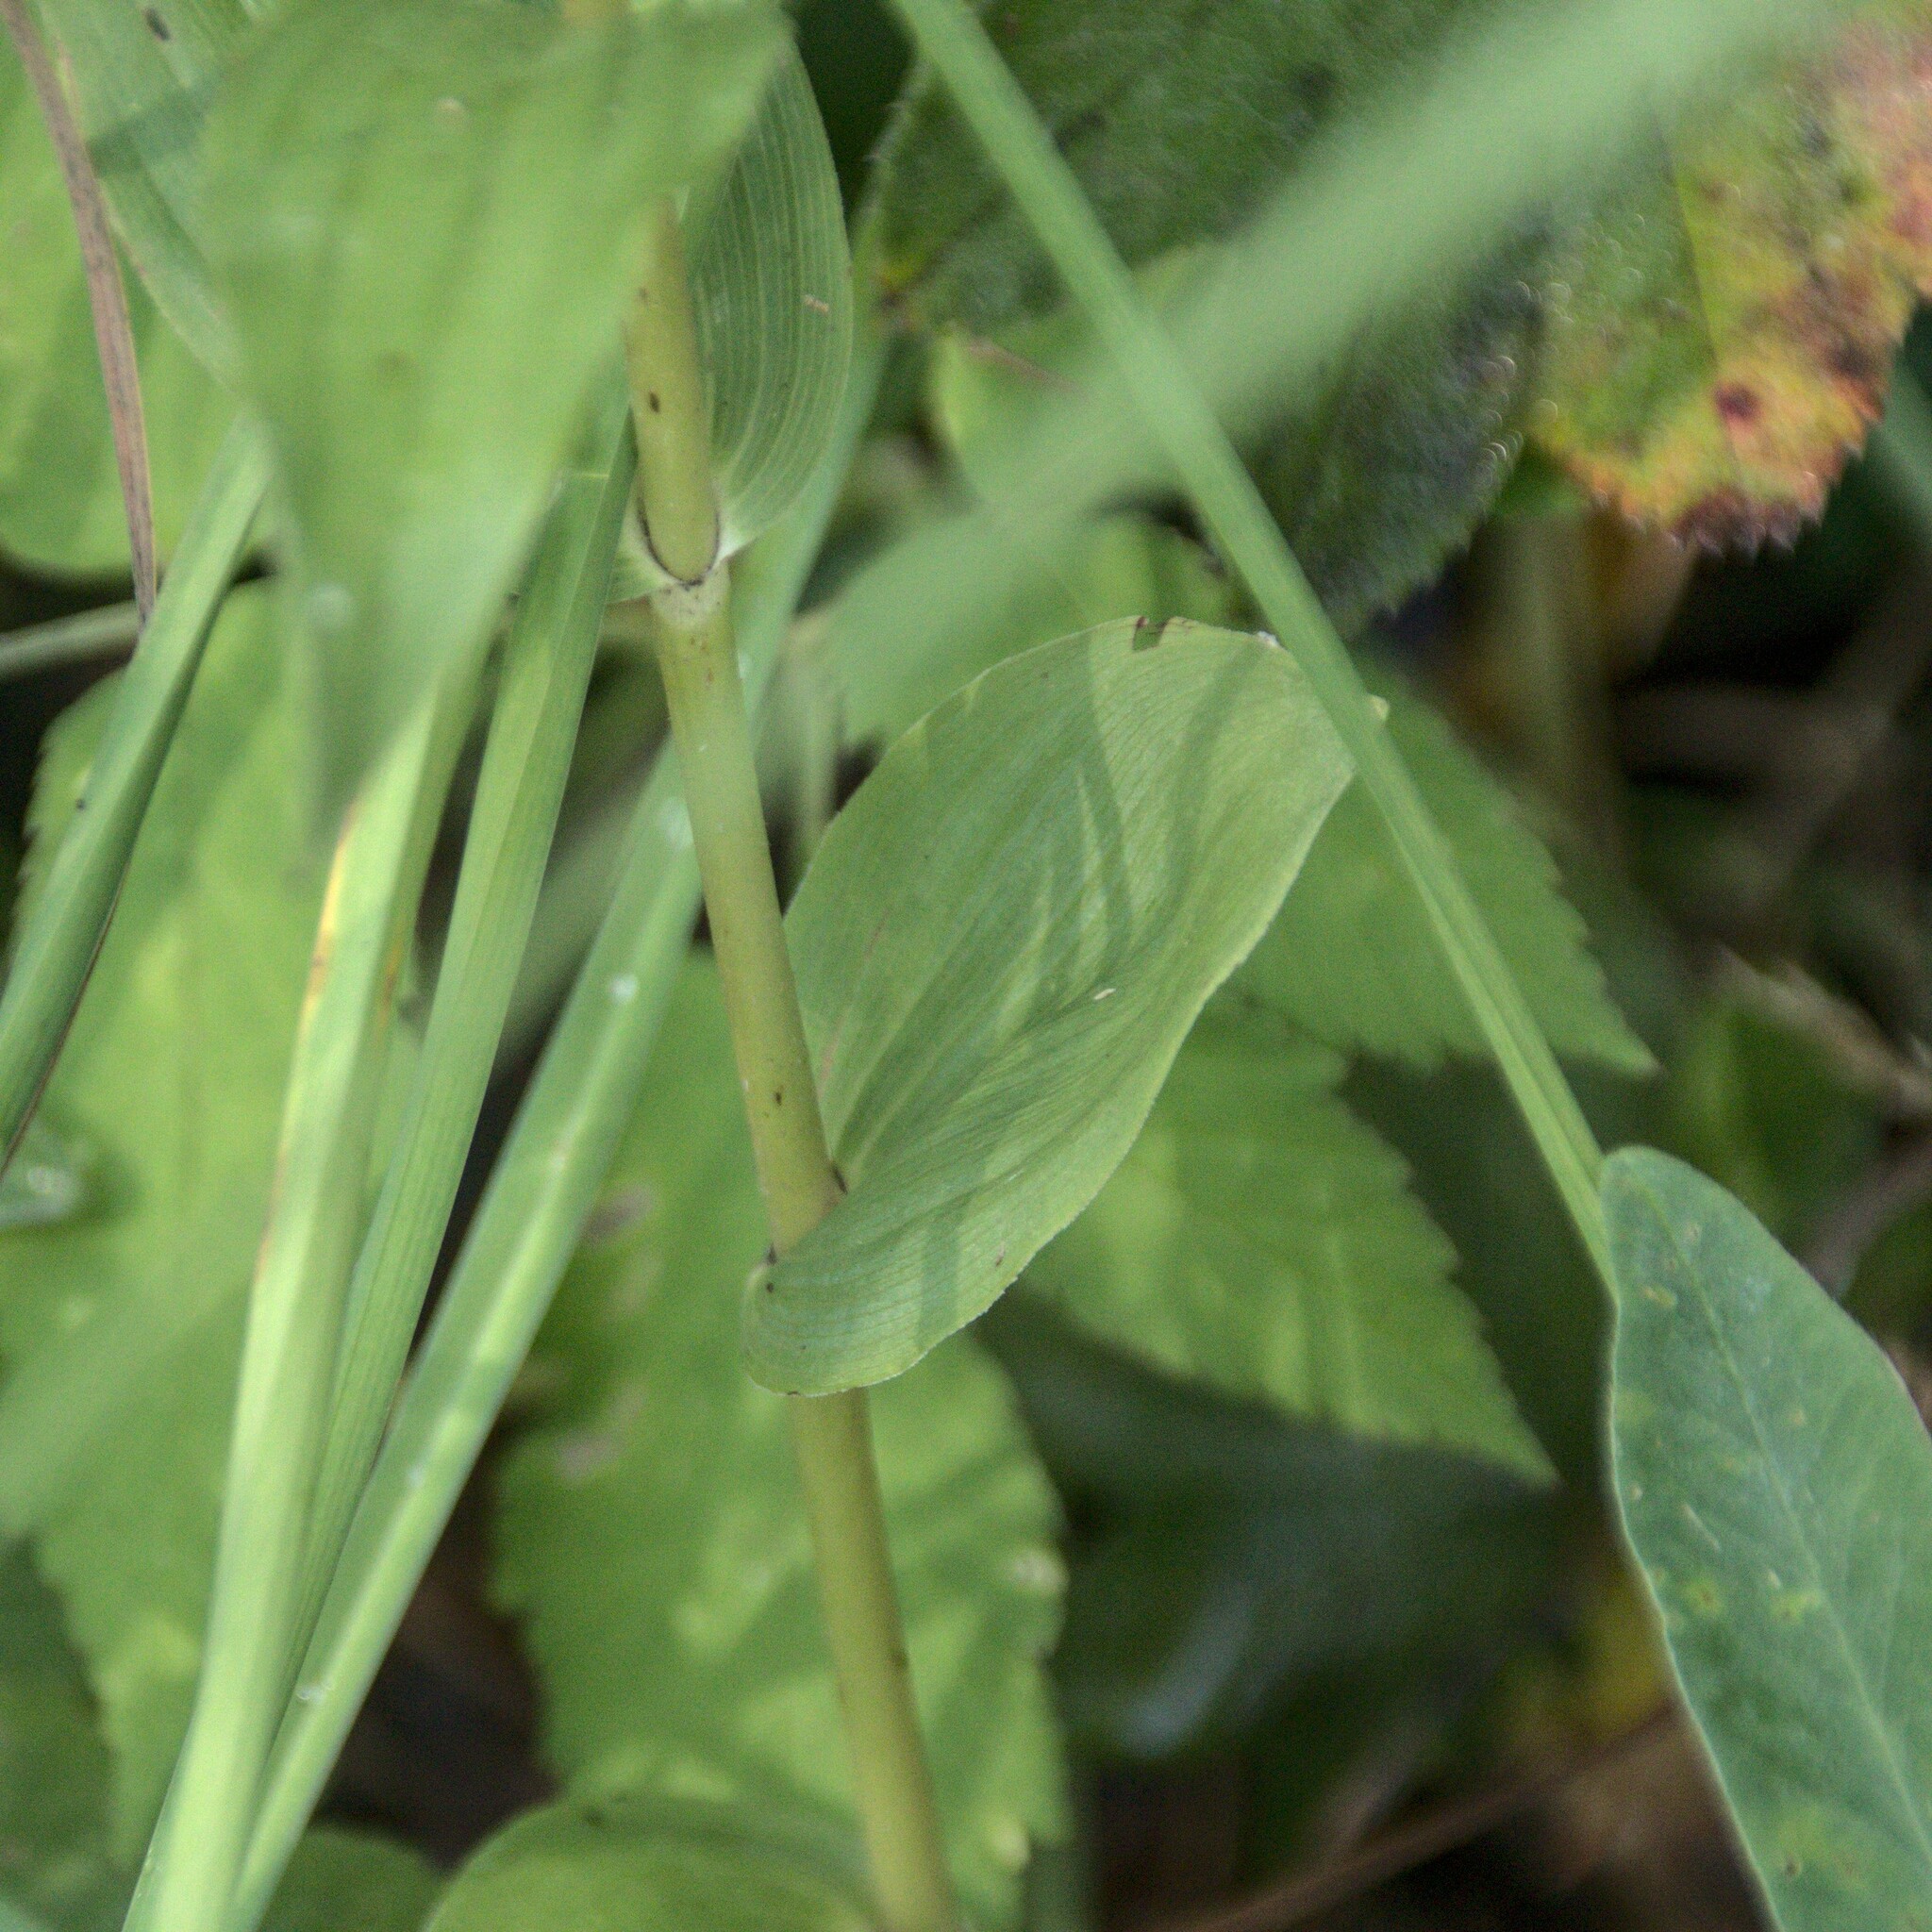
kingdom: Plantae
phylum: Tracheophyta
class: Liliopsida
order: Asparagales
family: Orchidaceae
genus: Epipactis
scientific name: Epipactis helleborine
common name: Broad-leaved helleborine
